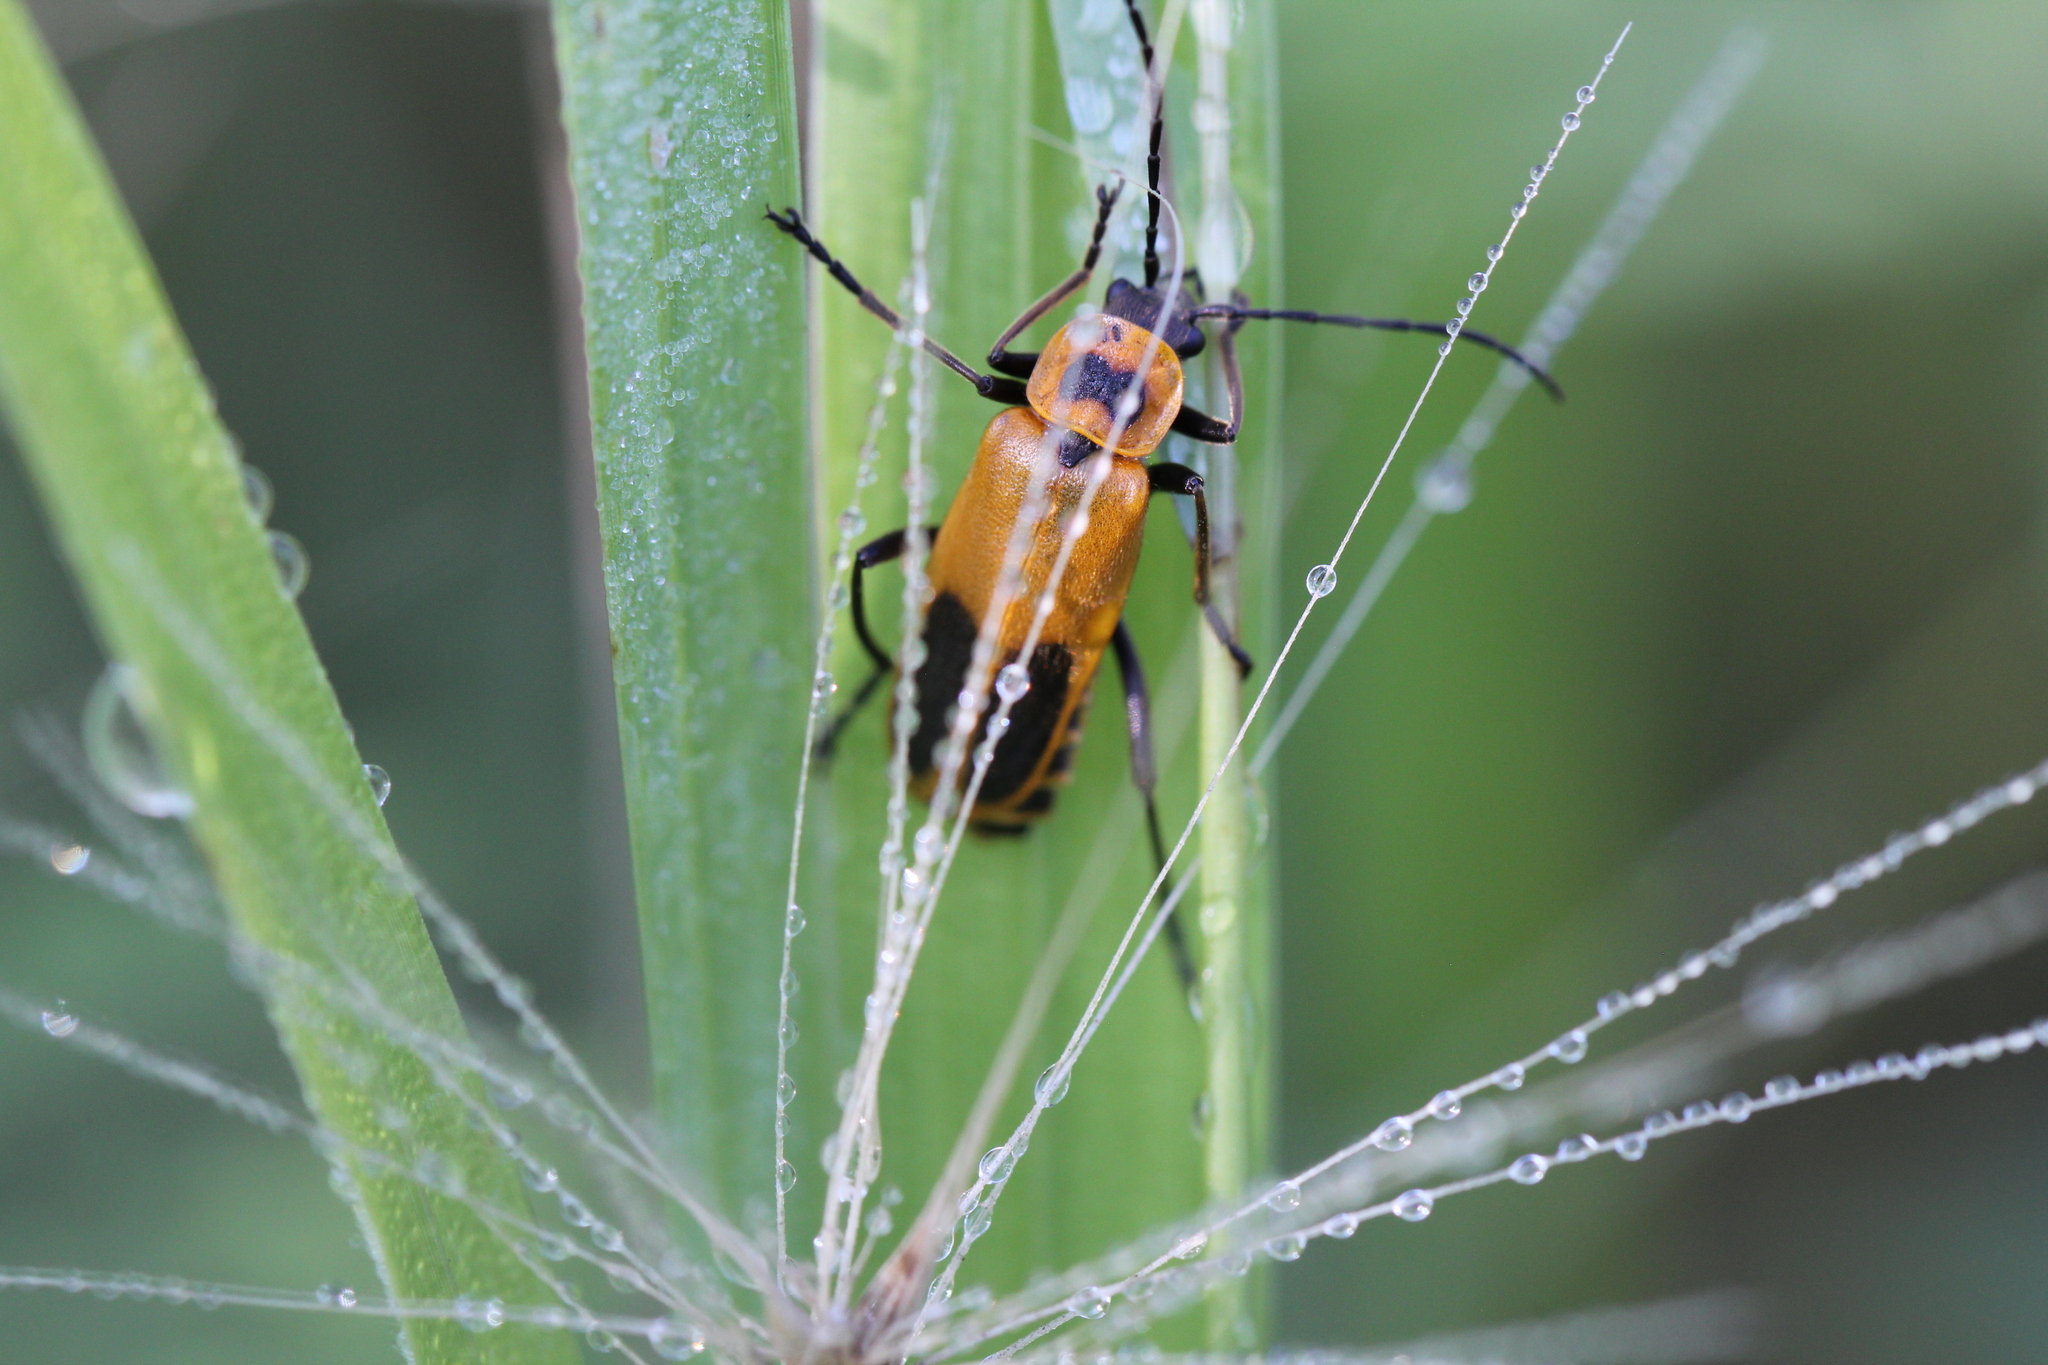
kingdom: Animalia
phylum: Arthropoda
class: Insecta
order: Coleoptera
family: Cantharidae
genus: Chauliognathus
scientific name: Chauliognathus pensylvanicus
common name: Goldenrod soldier beetle
